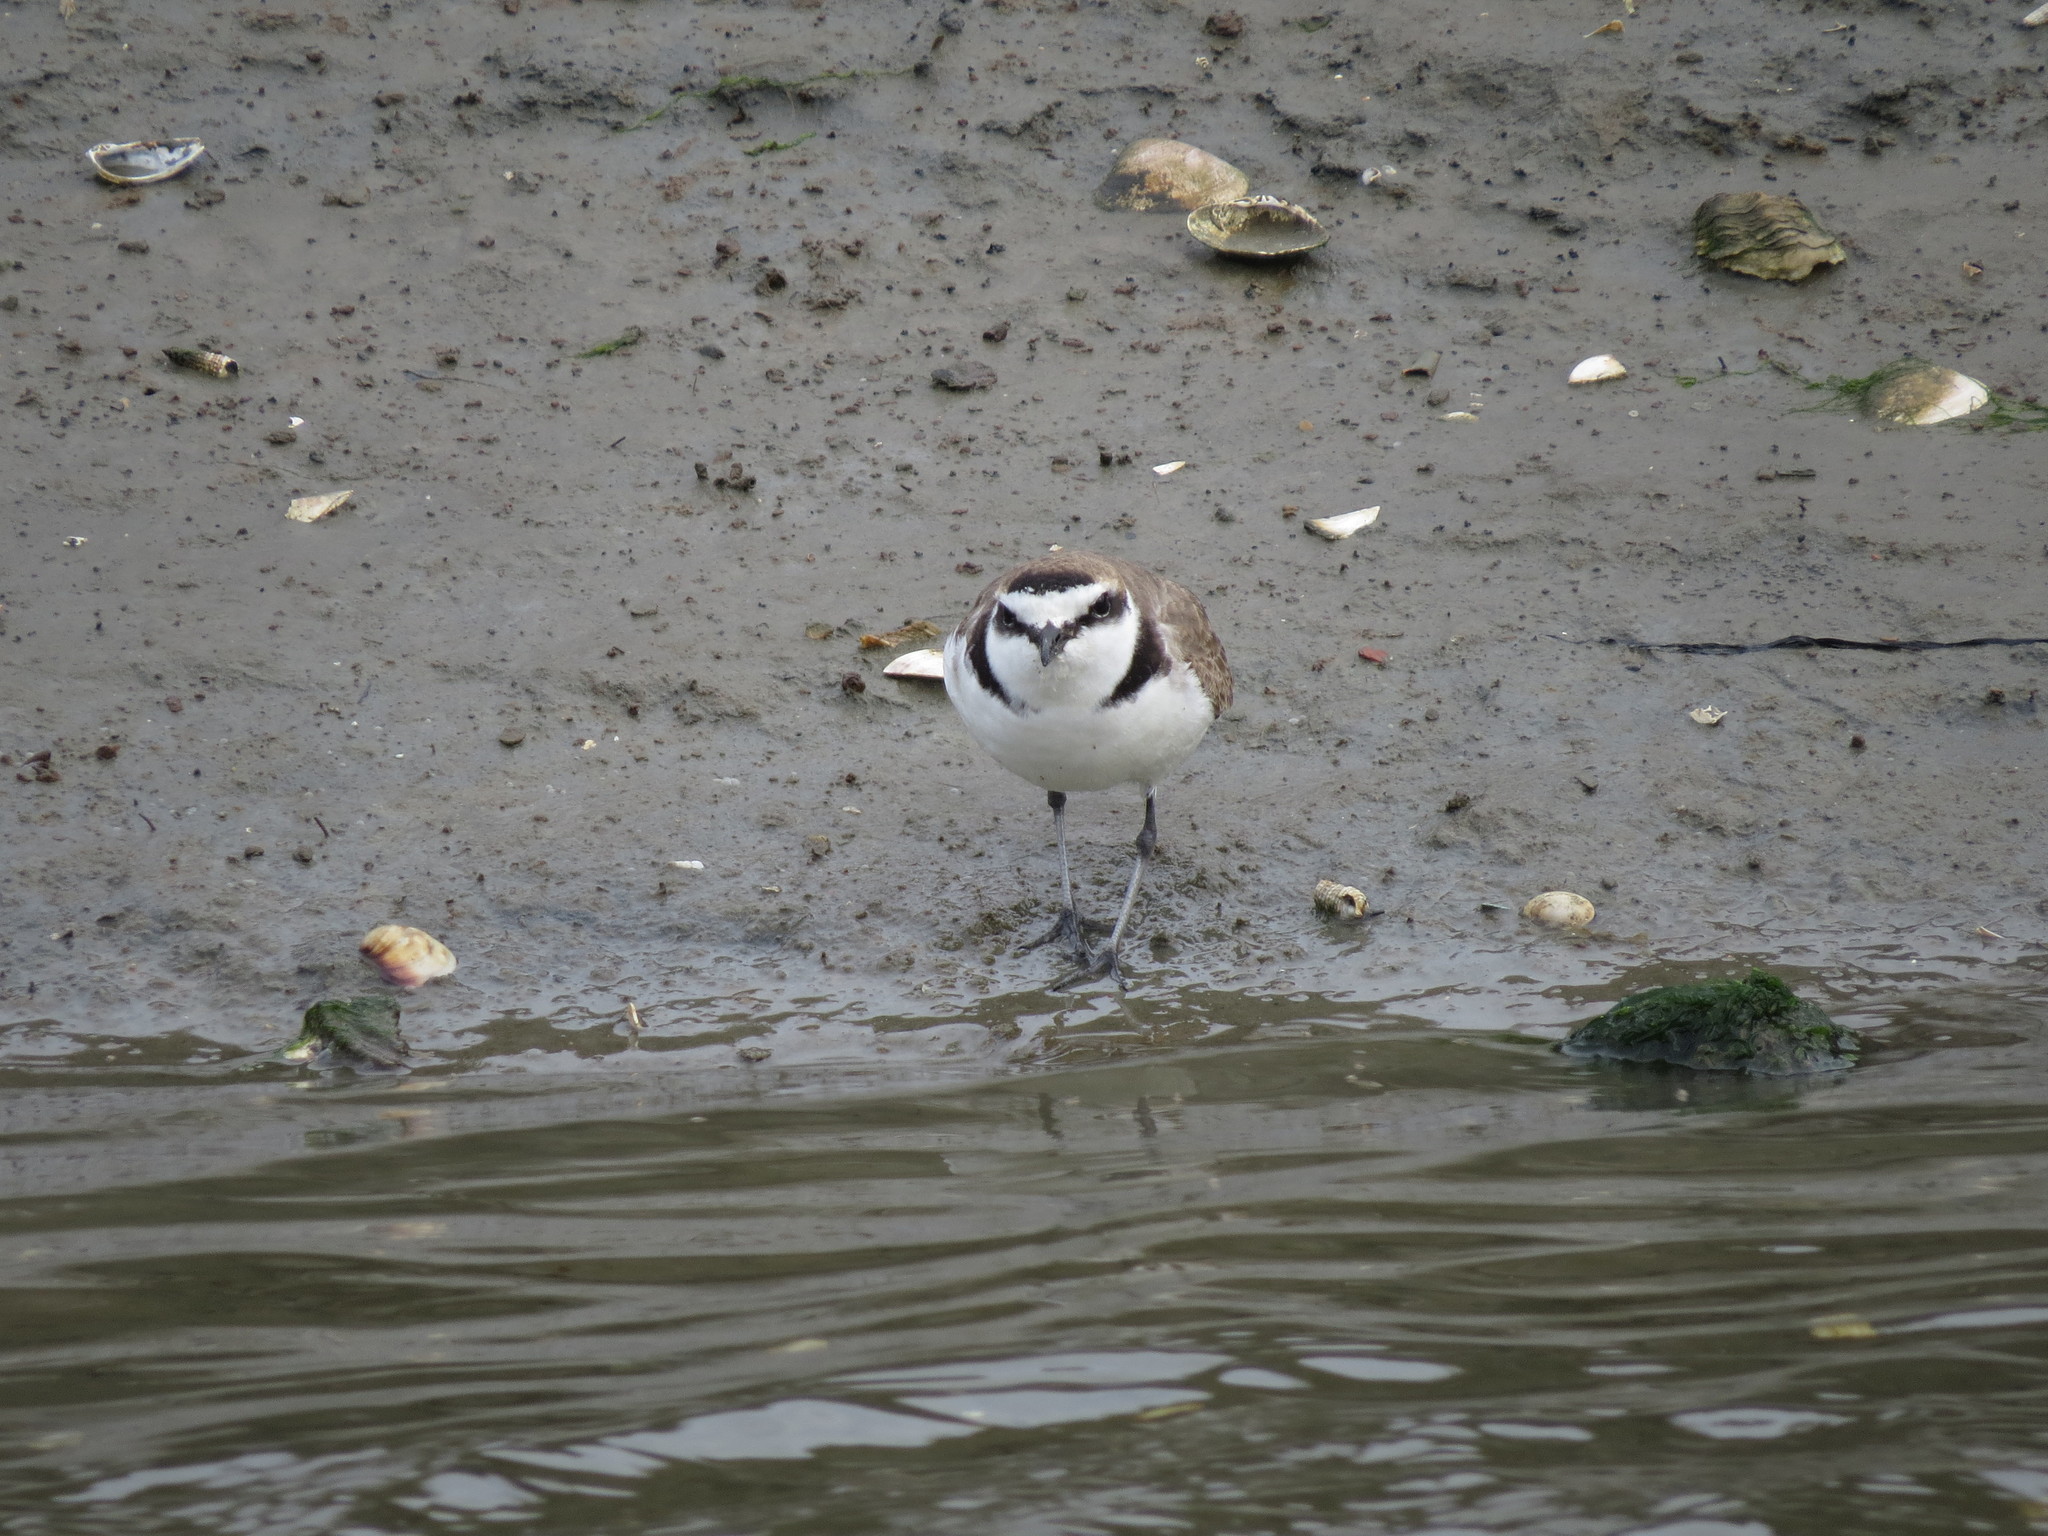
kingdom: Animalia
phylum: Chordata
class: Aves
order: Charadriiformes
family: Charadriidae
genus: Charadrius
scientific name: Charadrius alexandrinus
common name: Kentish plover
